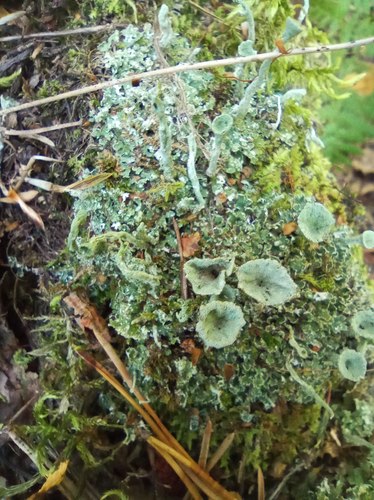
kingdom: Fungi
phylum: Ascomycota
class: Lecanoromycetes
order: Lecanorales
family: Cladoniaceae
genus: Cladonia
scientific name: Cladonia deformis
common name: Lesser sulphur-cup lichen
